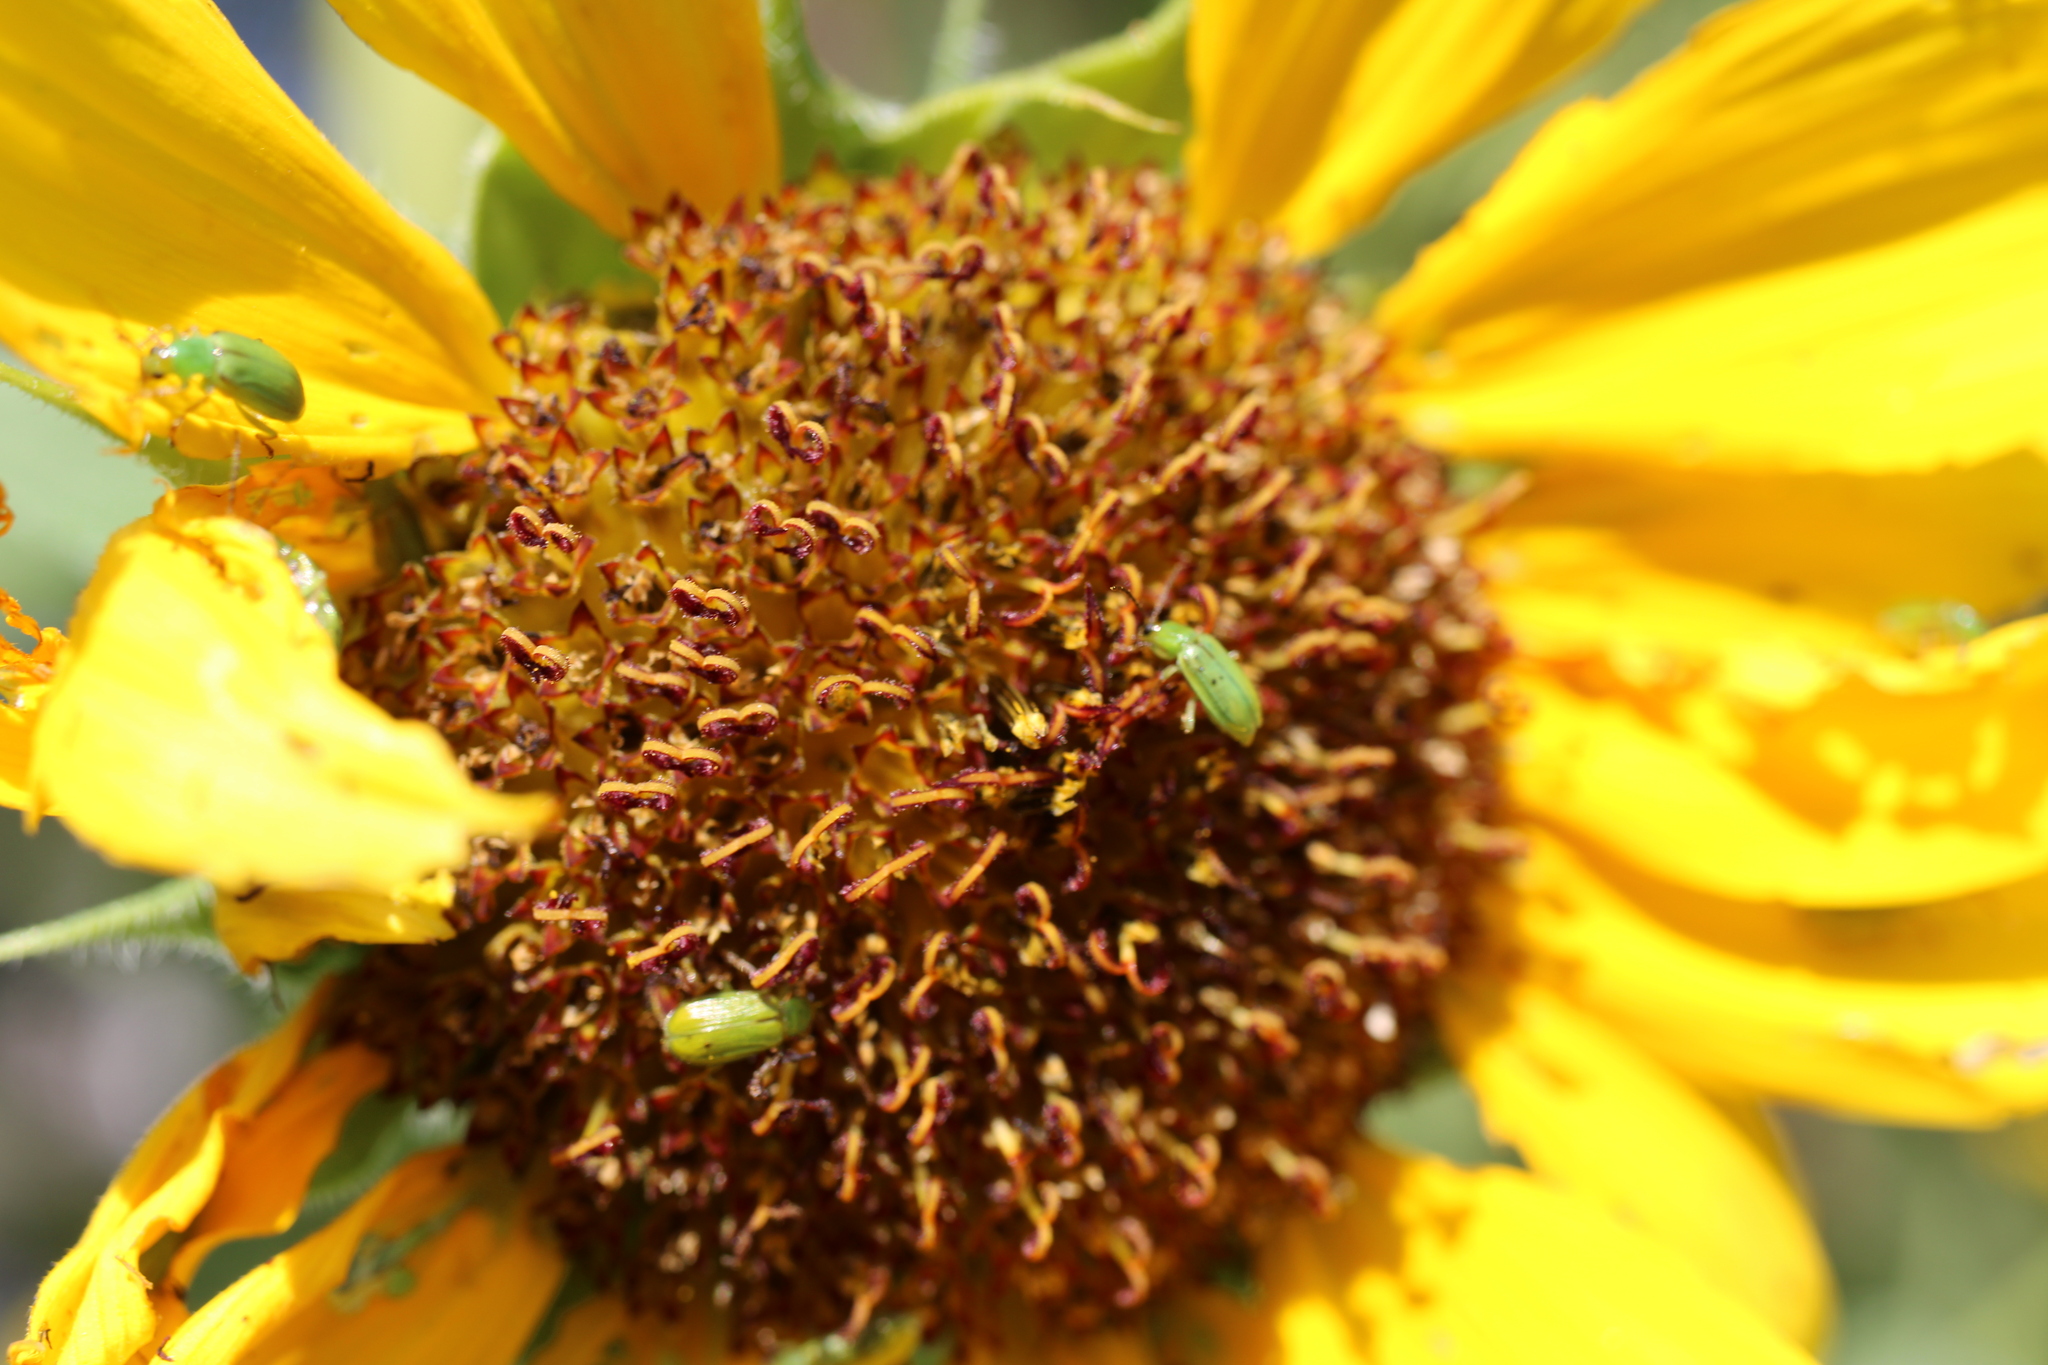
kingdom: Animalia
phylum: Arthropoda
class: Insecta
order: Coleoptera
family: Chrysomelidae
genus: Diabrotica
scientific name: Diabrotica barberi
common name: Northern corn rootworm
